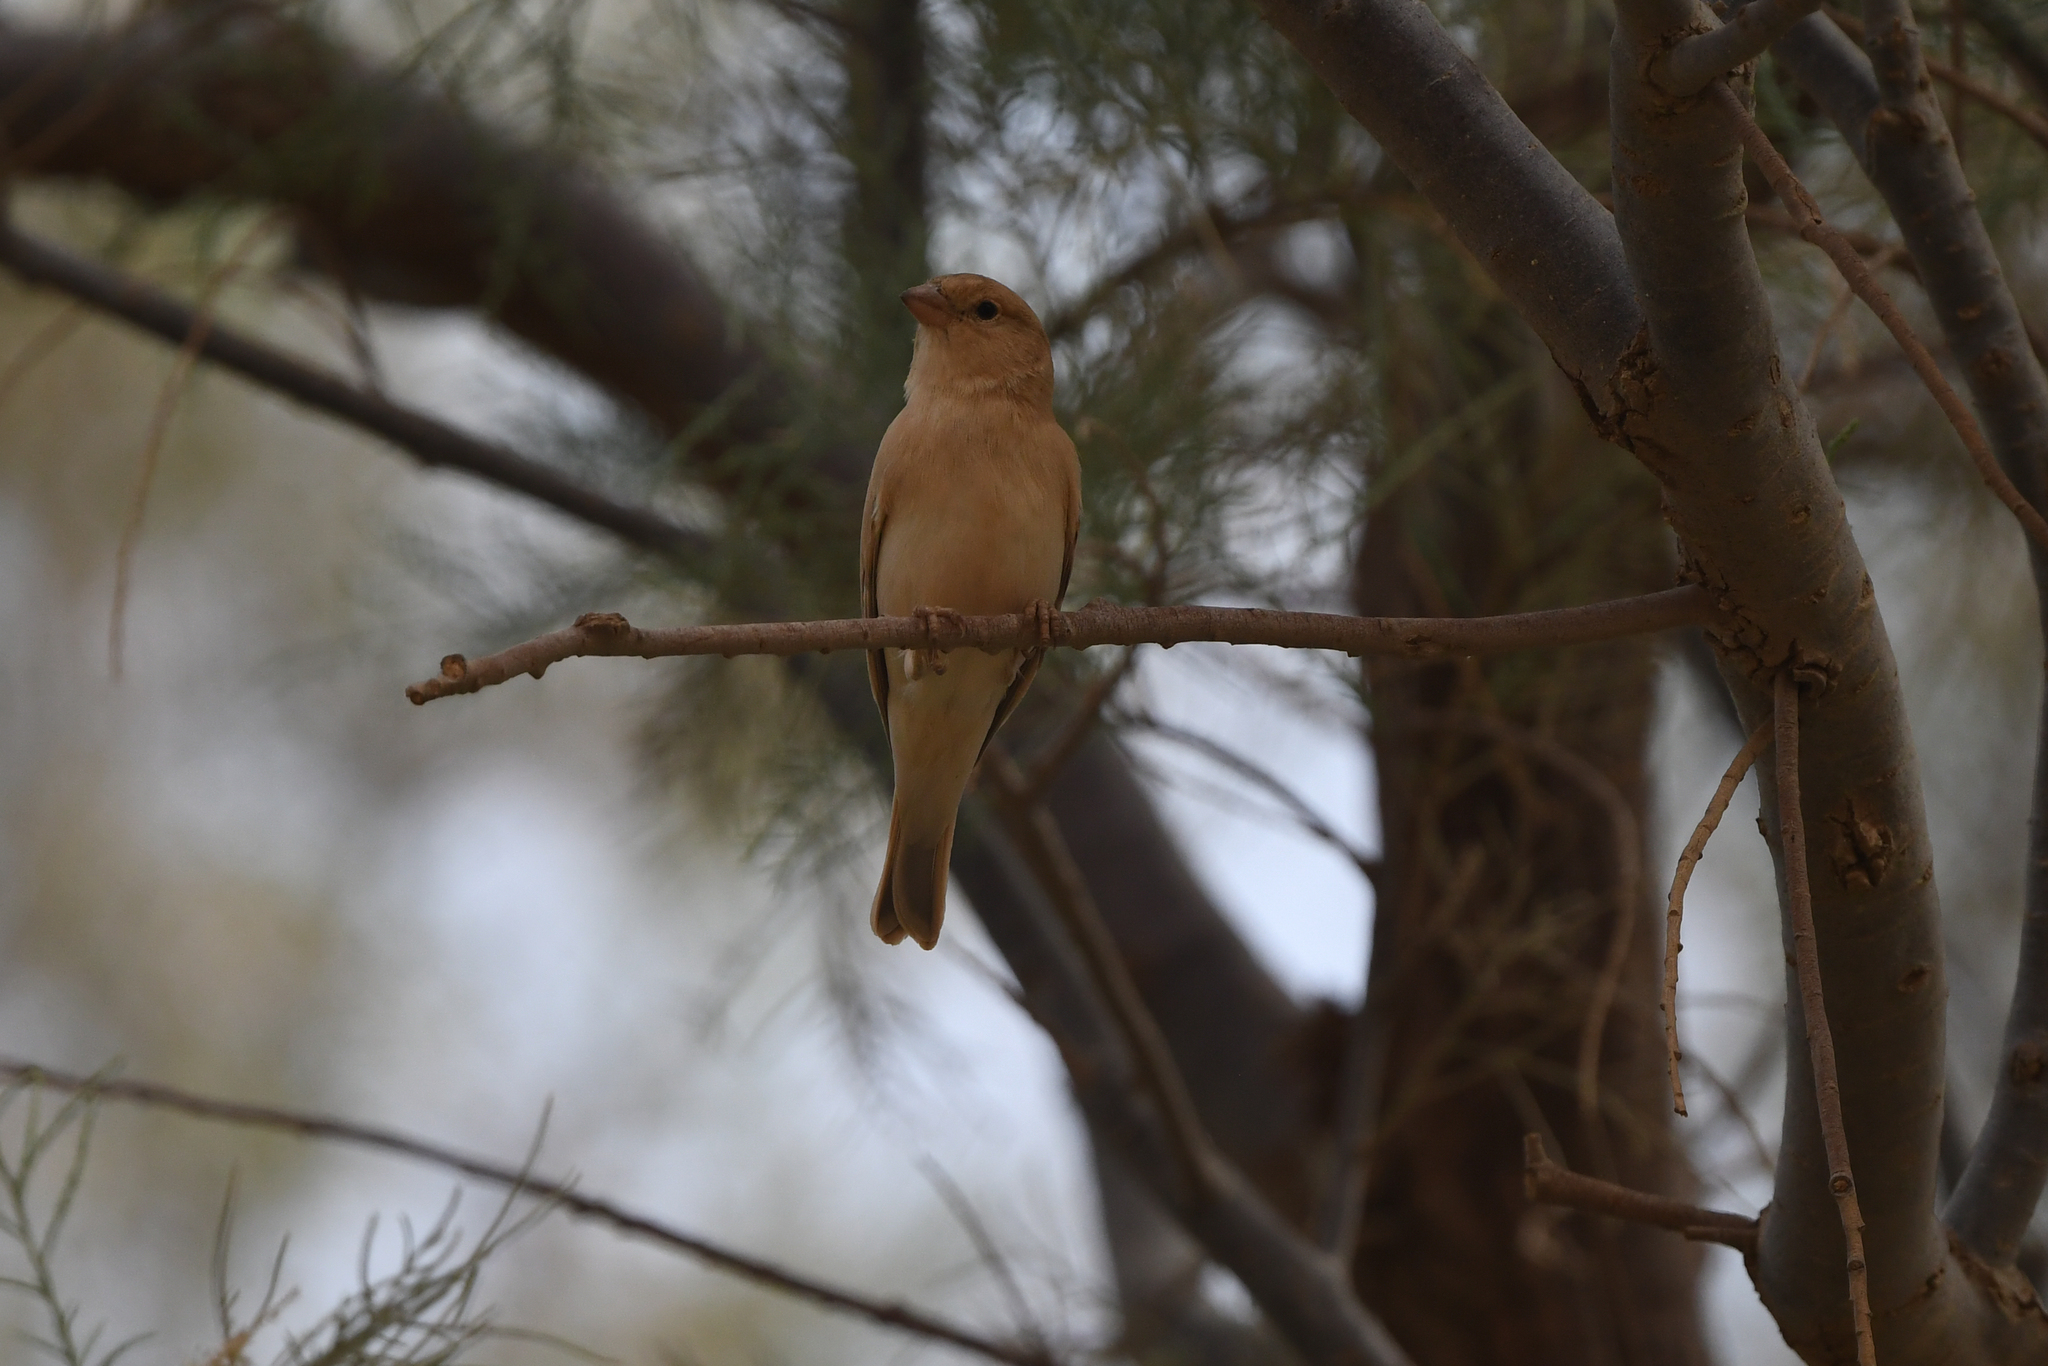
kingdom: Animalia
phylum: Chordata
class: Aves
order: Passeriformes
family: Passeridae
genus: Passer
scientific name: Passer simplex
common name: Desert sparrow
